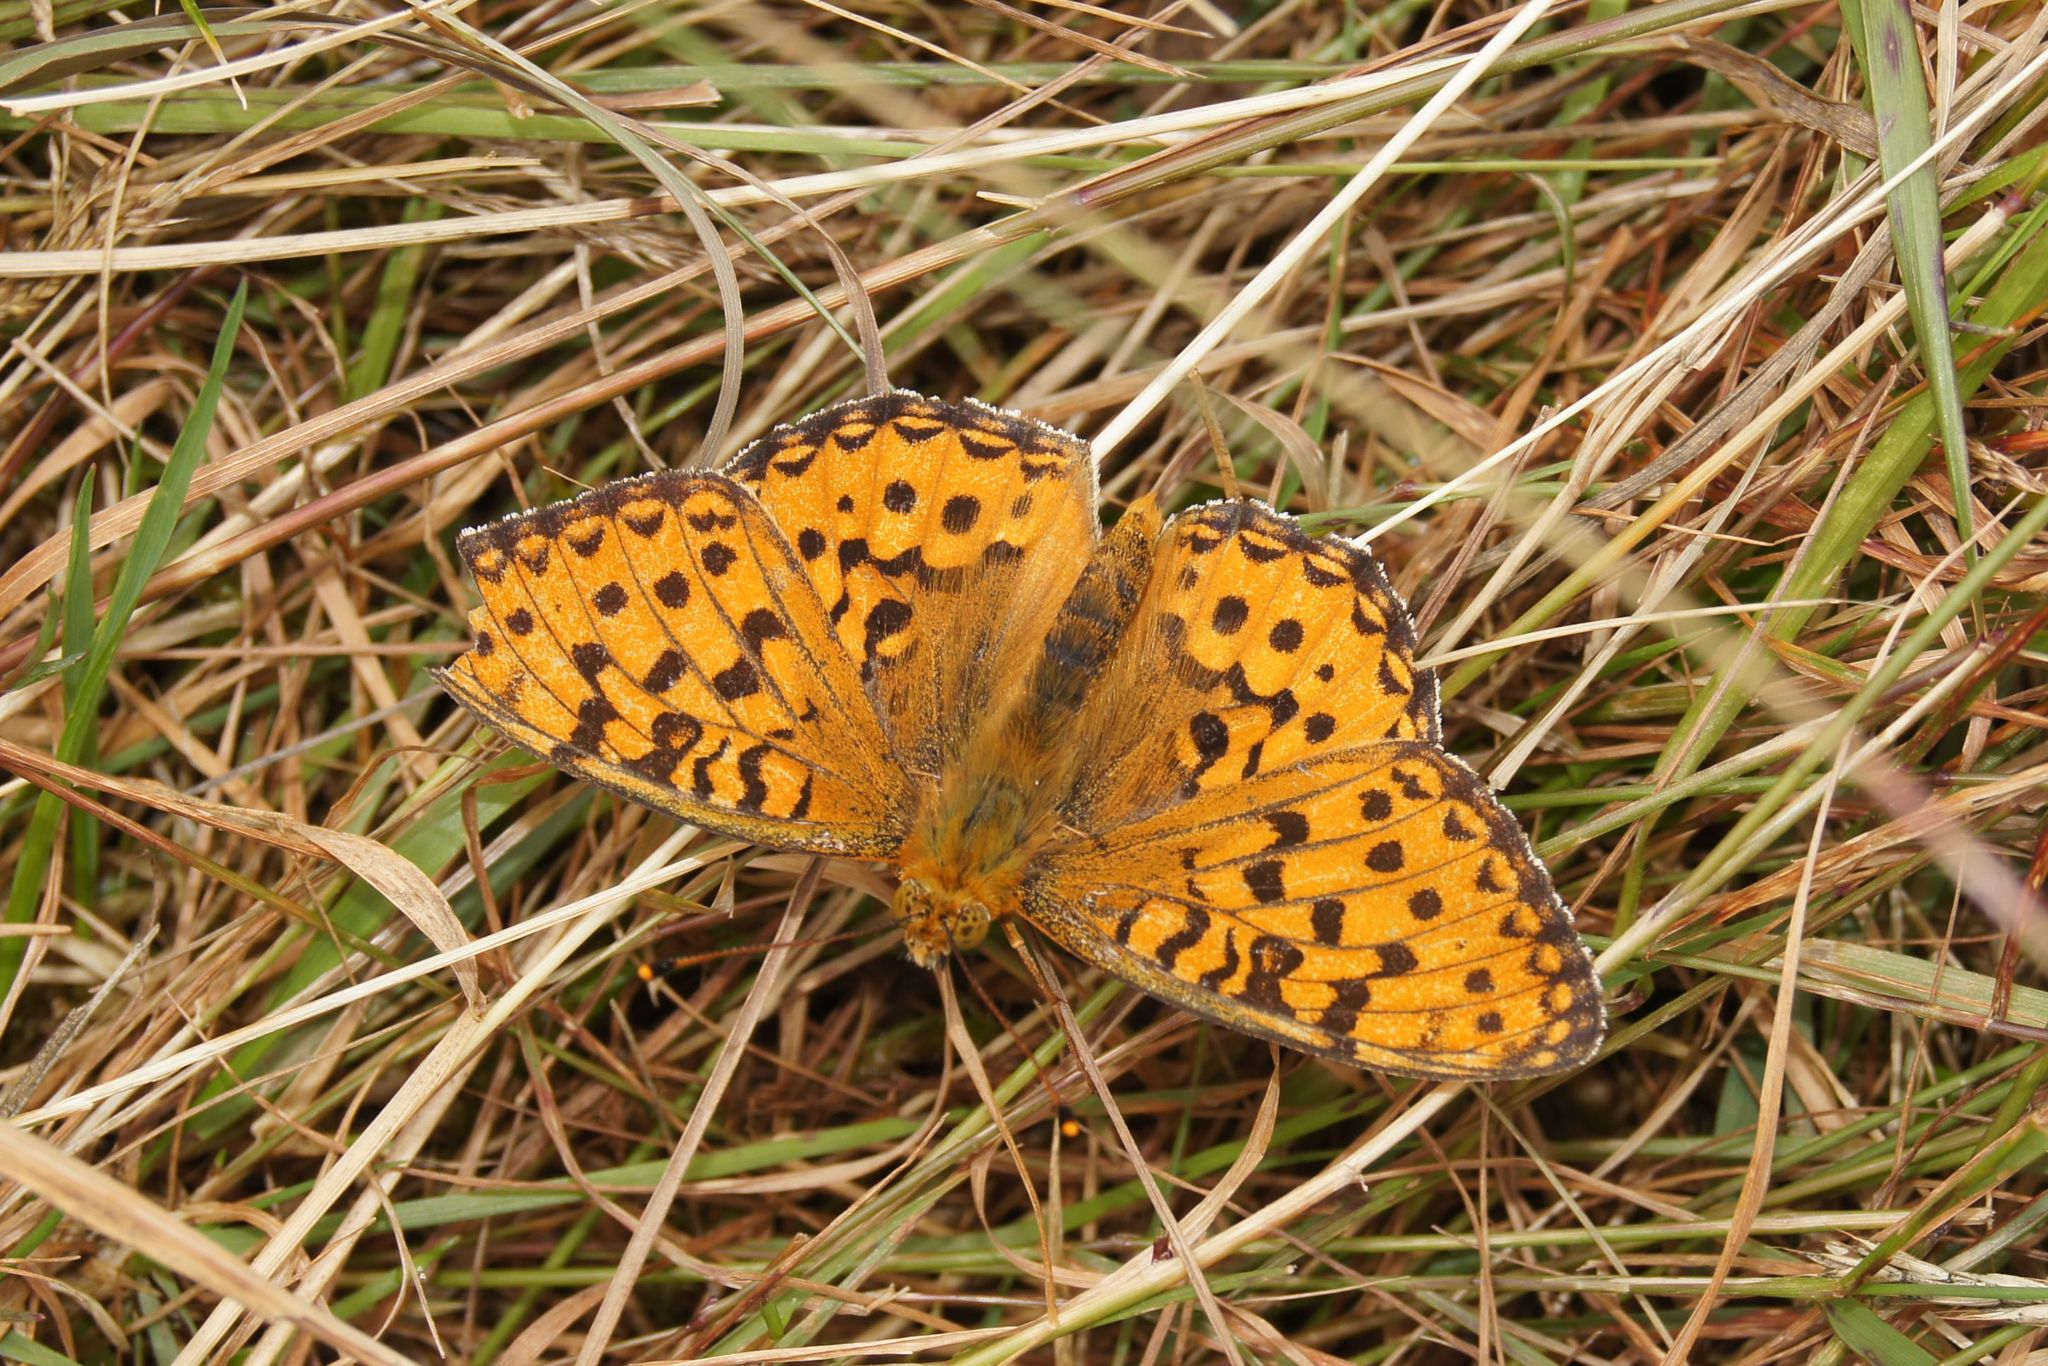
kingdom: Animalia
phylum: Arthropoda
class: Insecta
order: Lepidoptera
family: Nymphalidae
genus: Speyeria
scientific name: Speyeria aglaja
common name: Dark green fritillary
